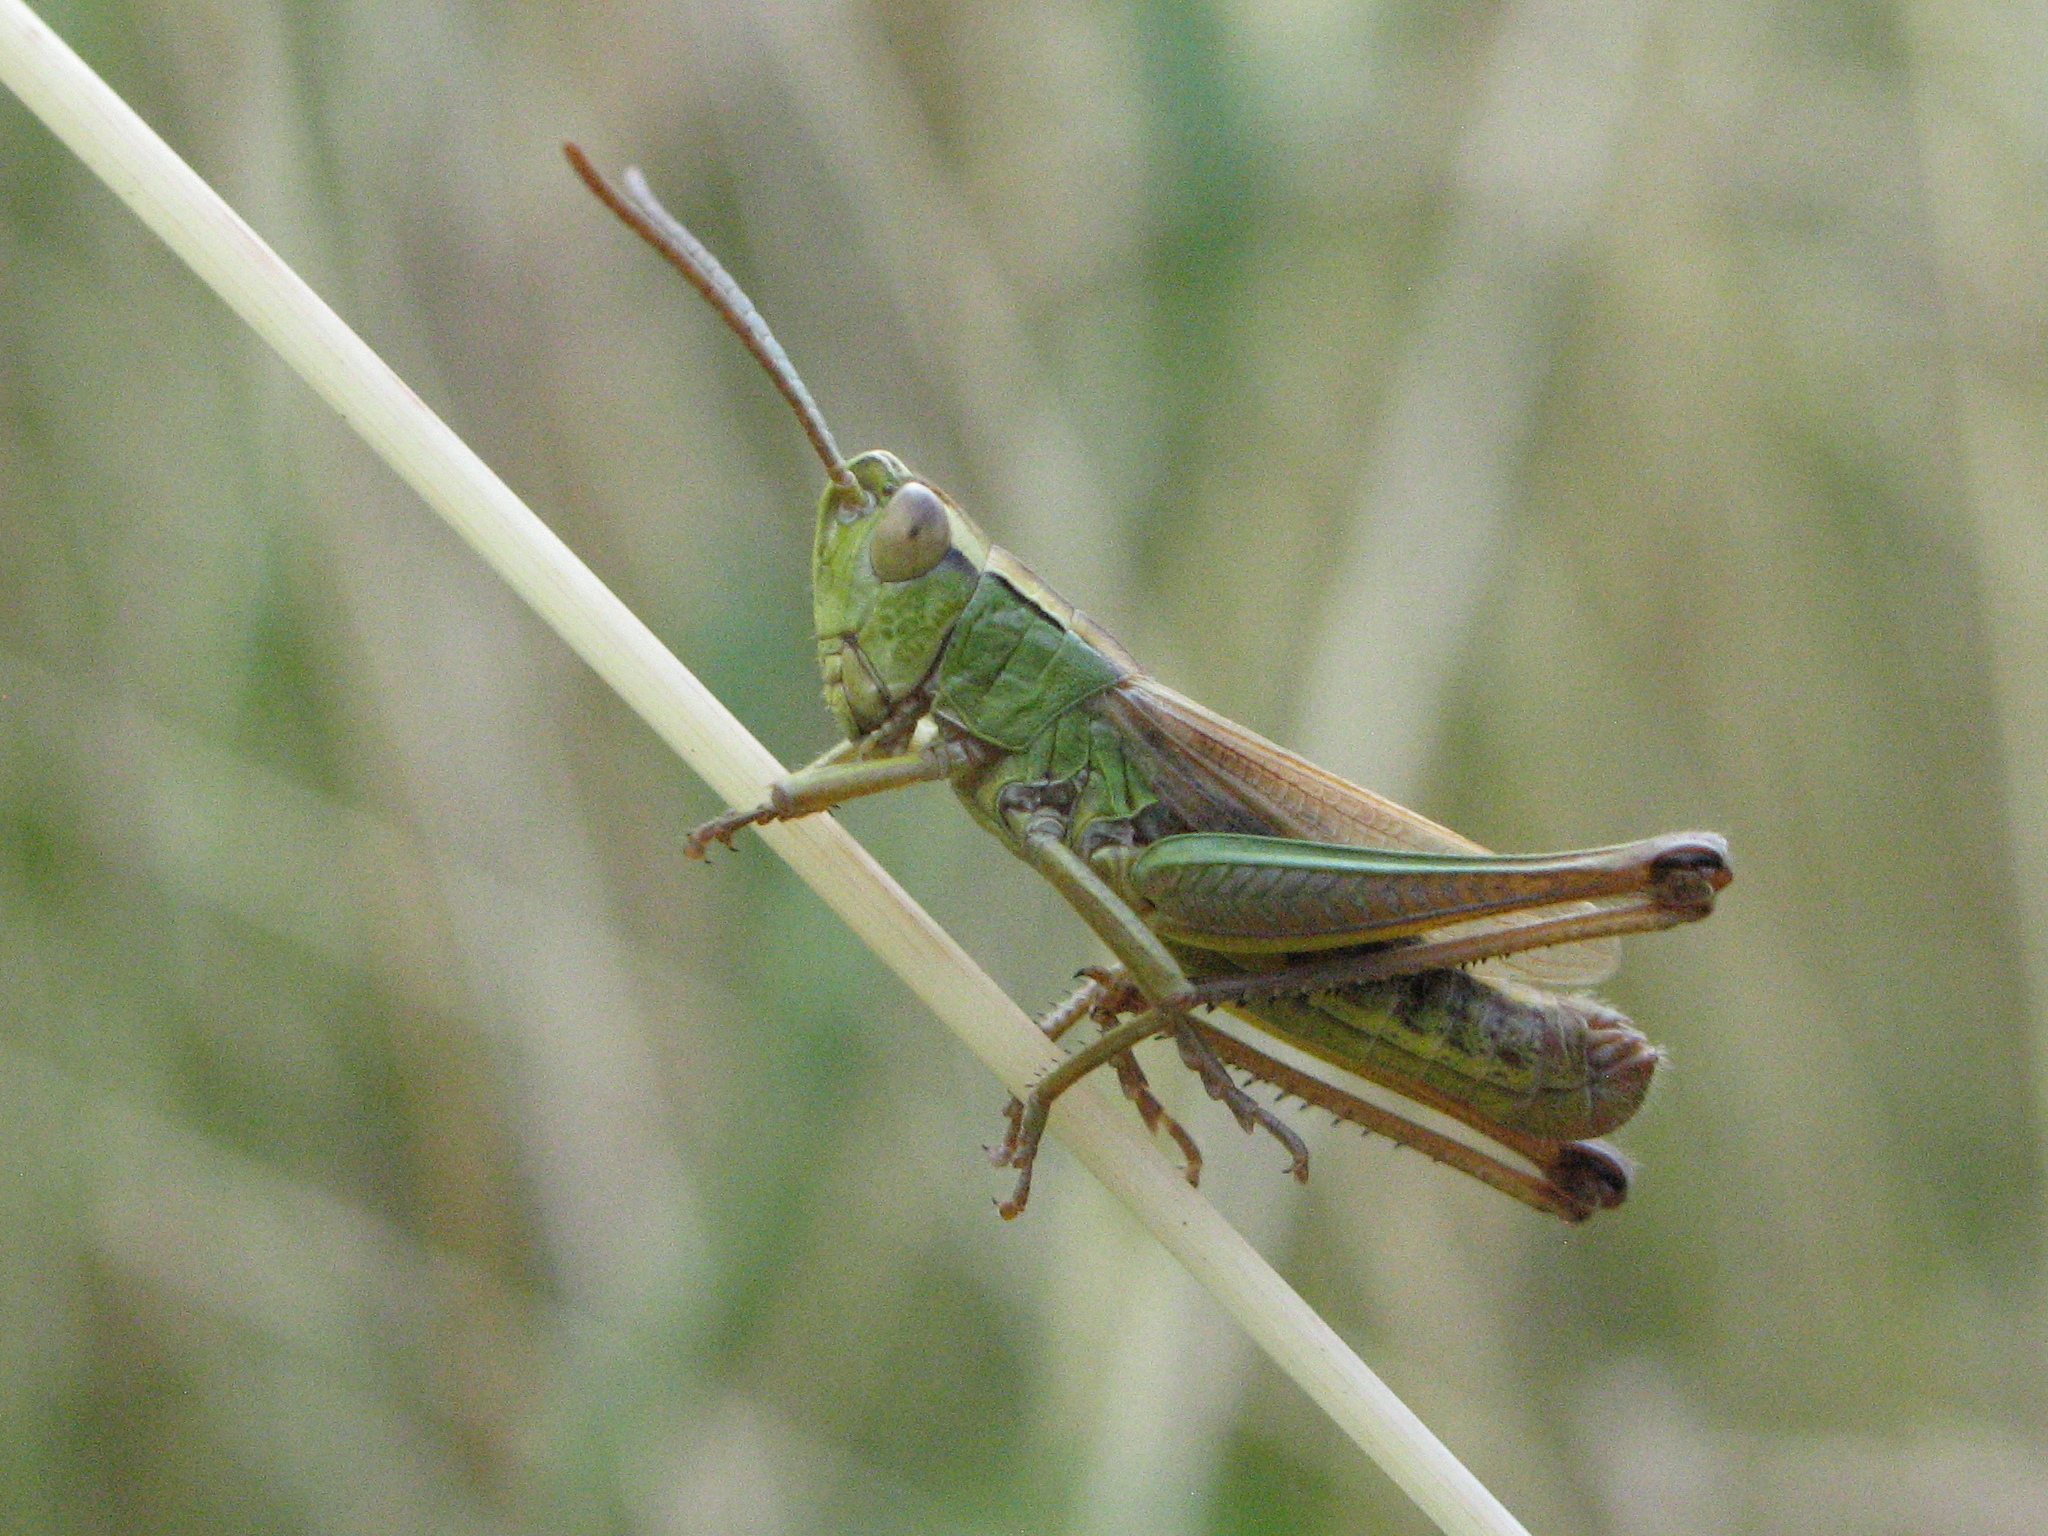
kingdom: Animalia
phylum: Arthropoda
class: Insecta
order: Orthoptera
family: Acrididae
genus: Pseudochorthippus
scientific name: Pseudochorthippus parallelus
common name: Meadow grasshopper
